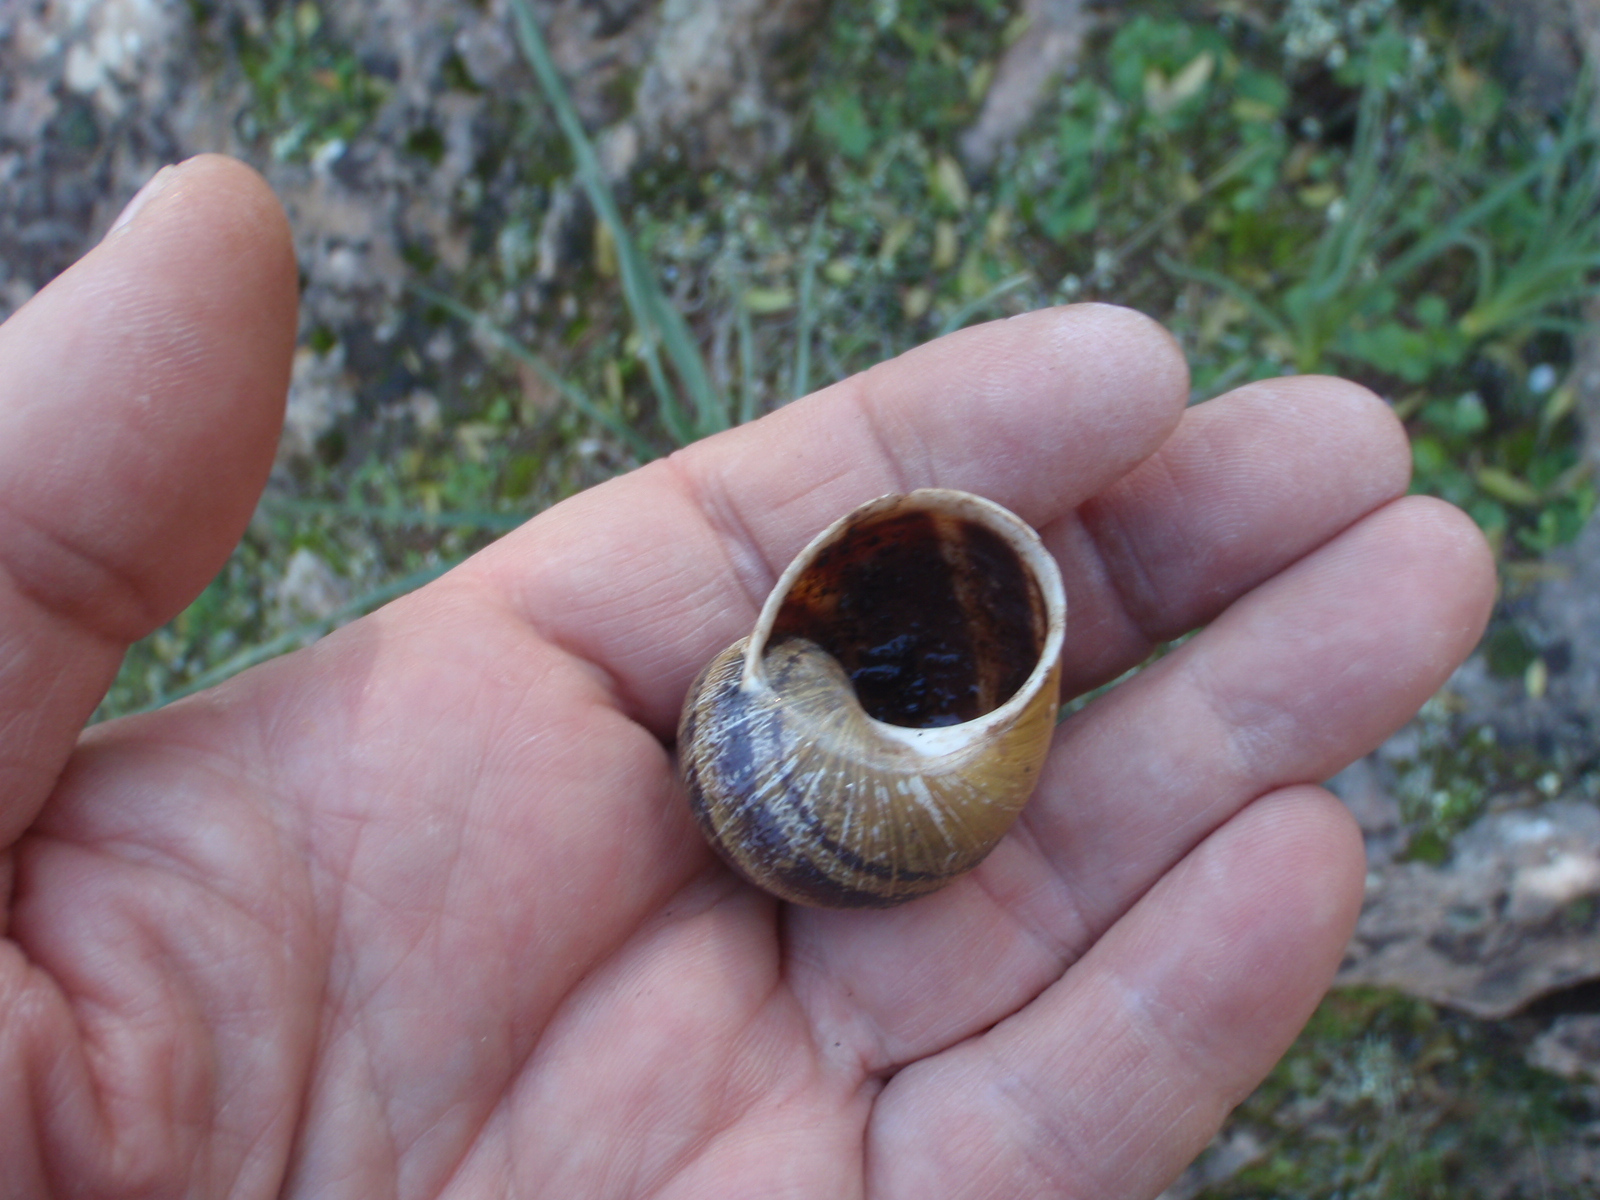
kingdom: Animalia
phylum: Mollusca
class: Gastropoda
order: Stylommatophora
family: Helicidae
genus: Cornu
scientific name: Cornu aspersum
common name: Brown garden snail
